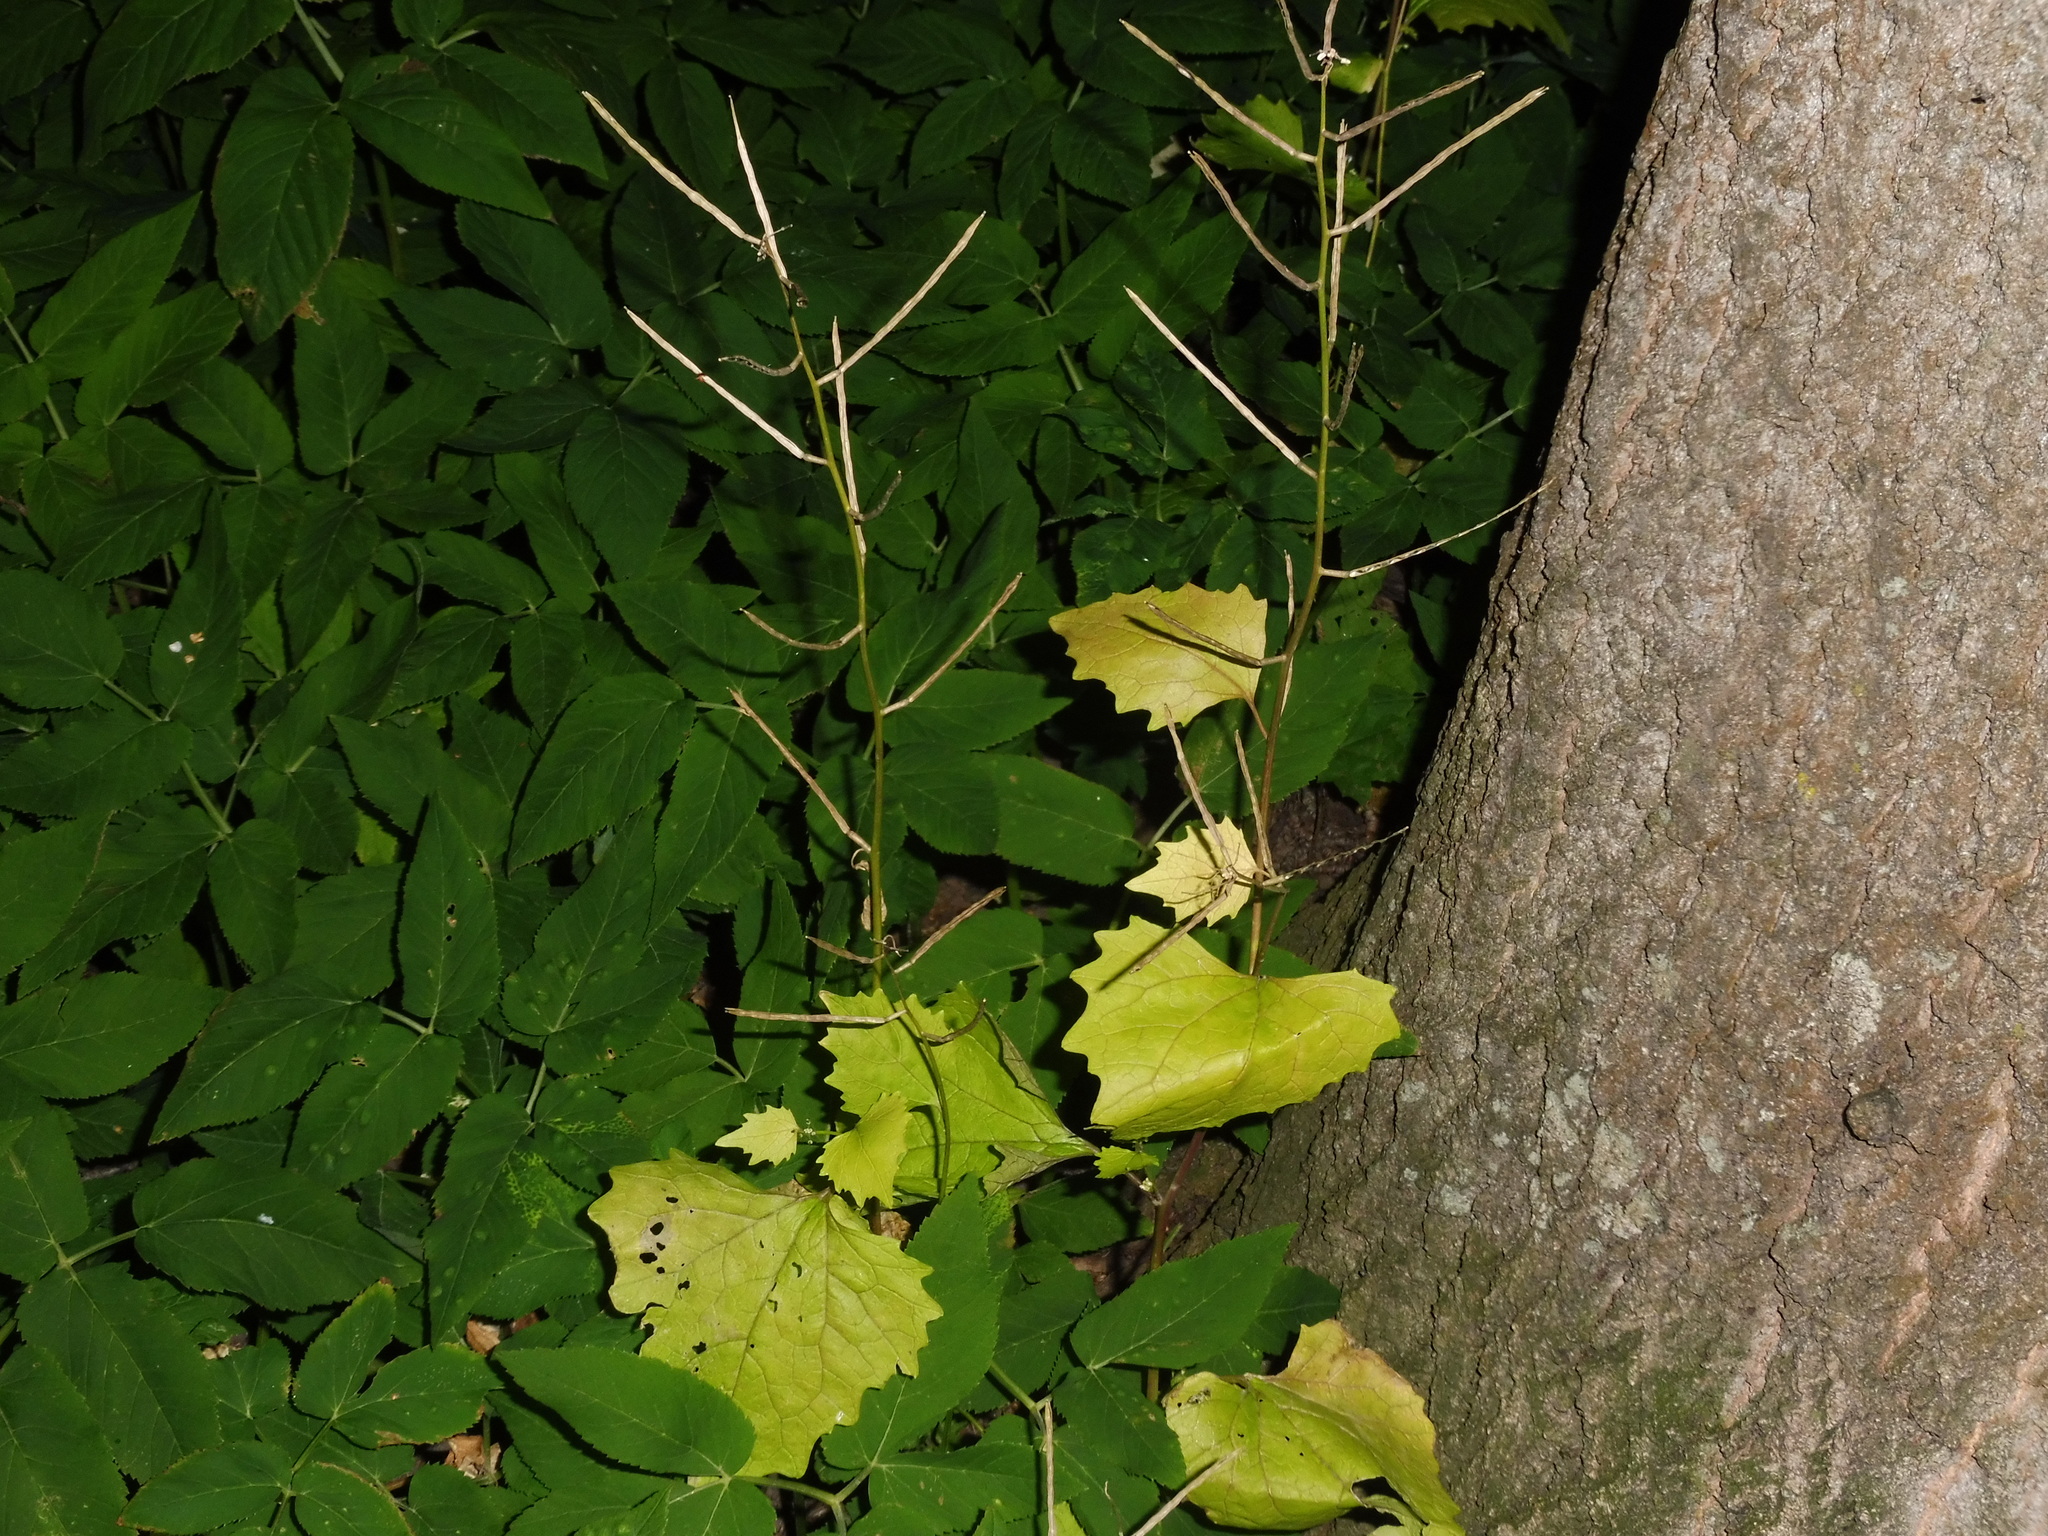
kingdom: Plantae
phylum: Tracheophyta
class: Magnoliopsida
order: Brassicales
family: Brassicaceae
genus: Alliaria
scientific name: Alliaria petiolata
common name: Garlic mustard
